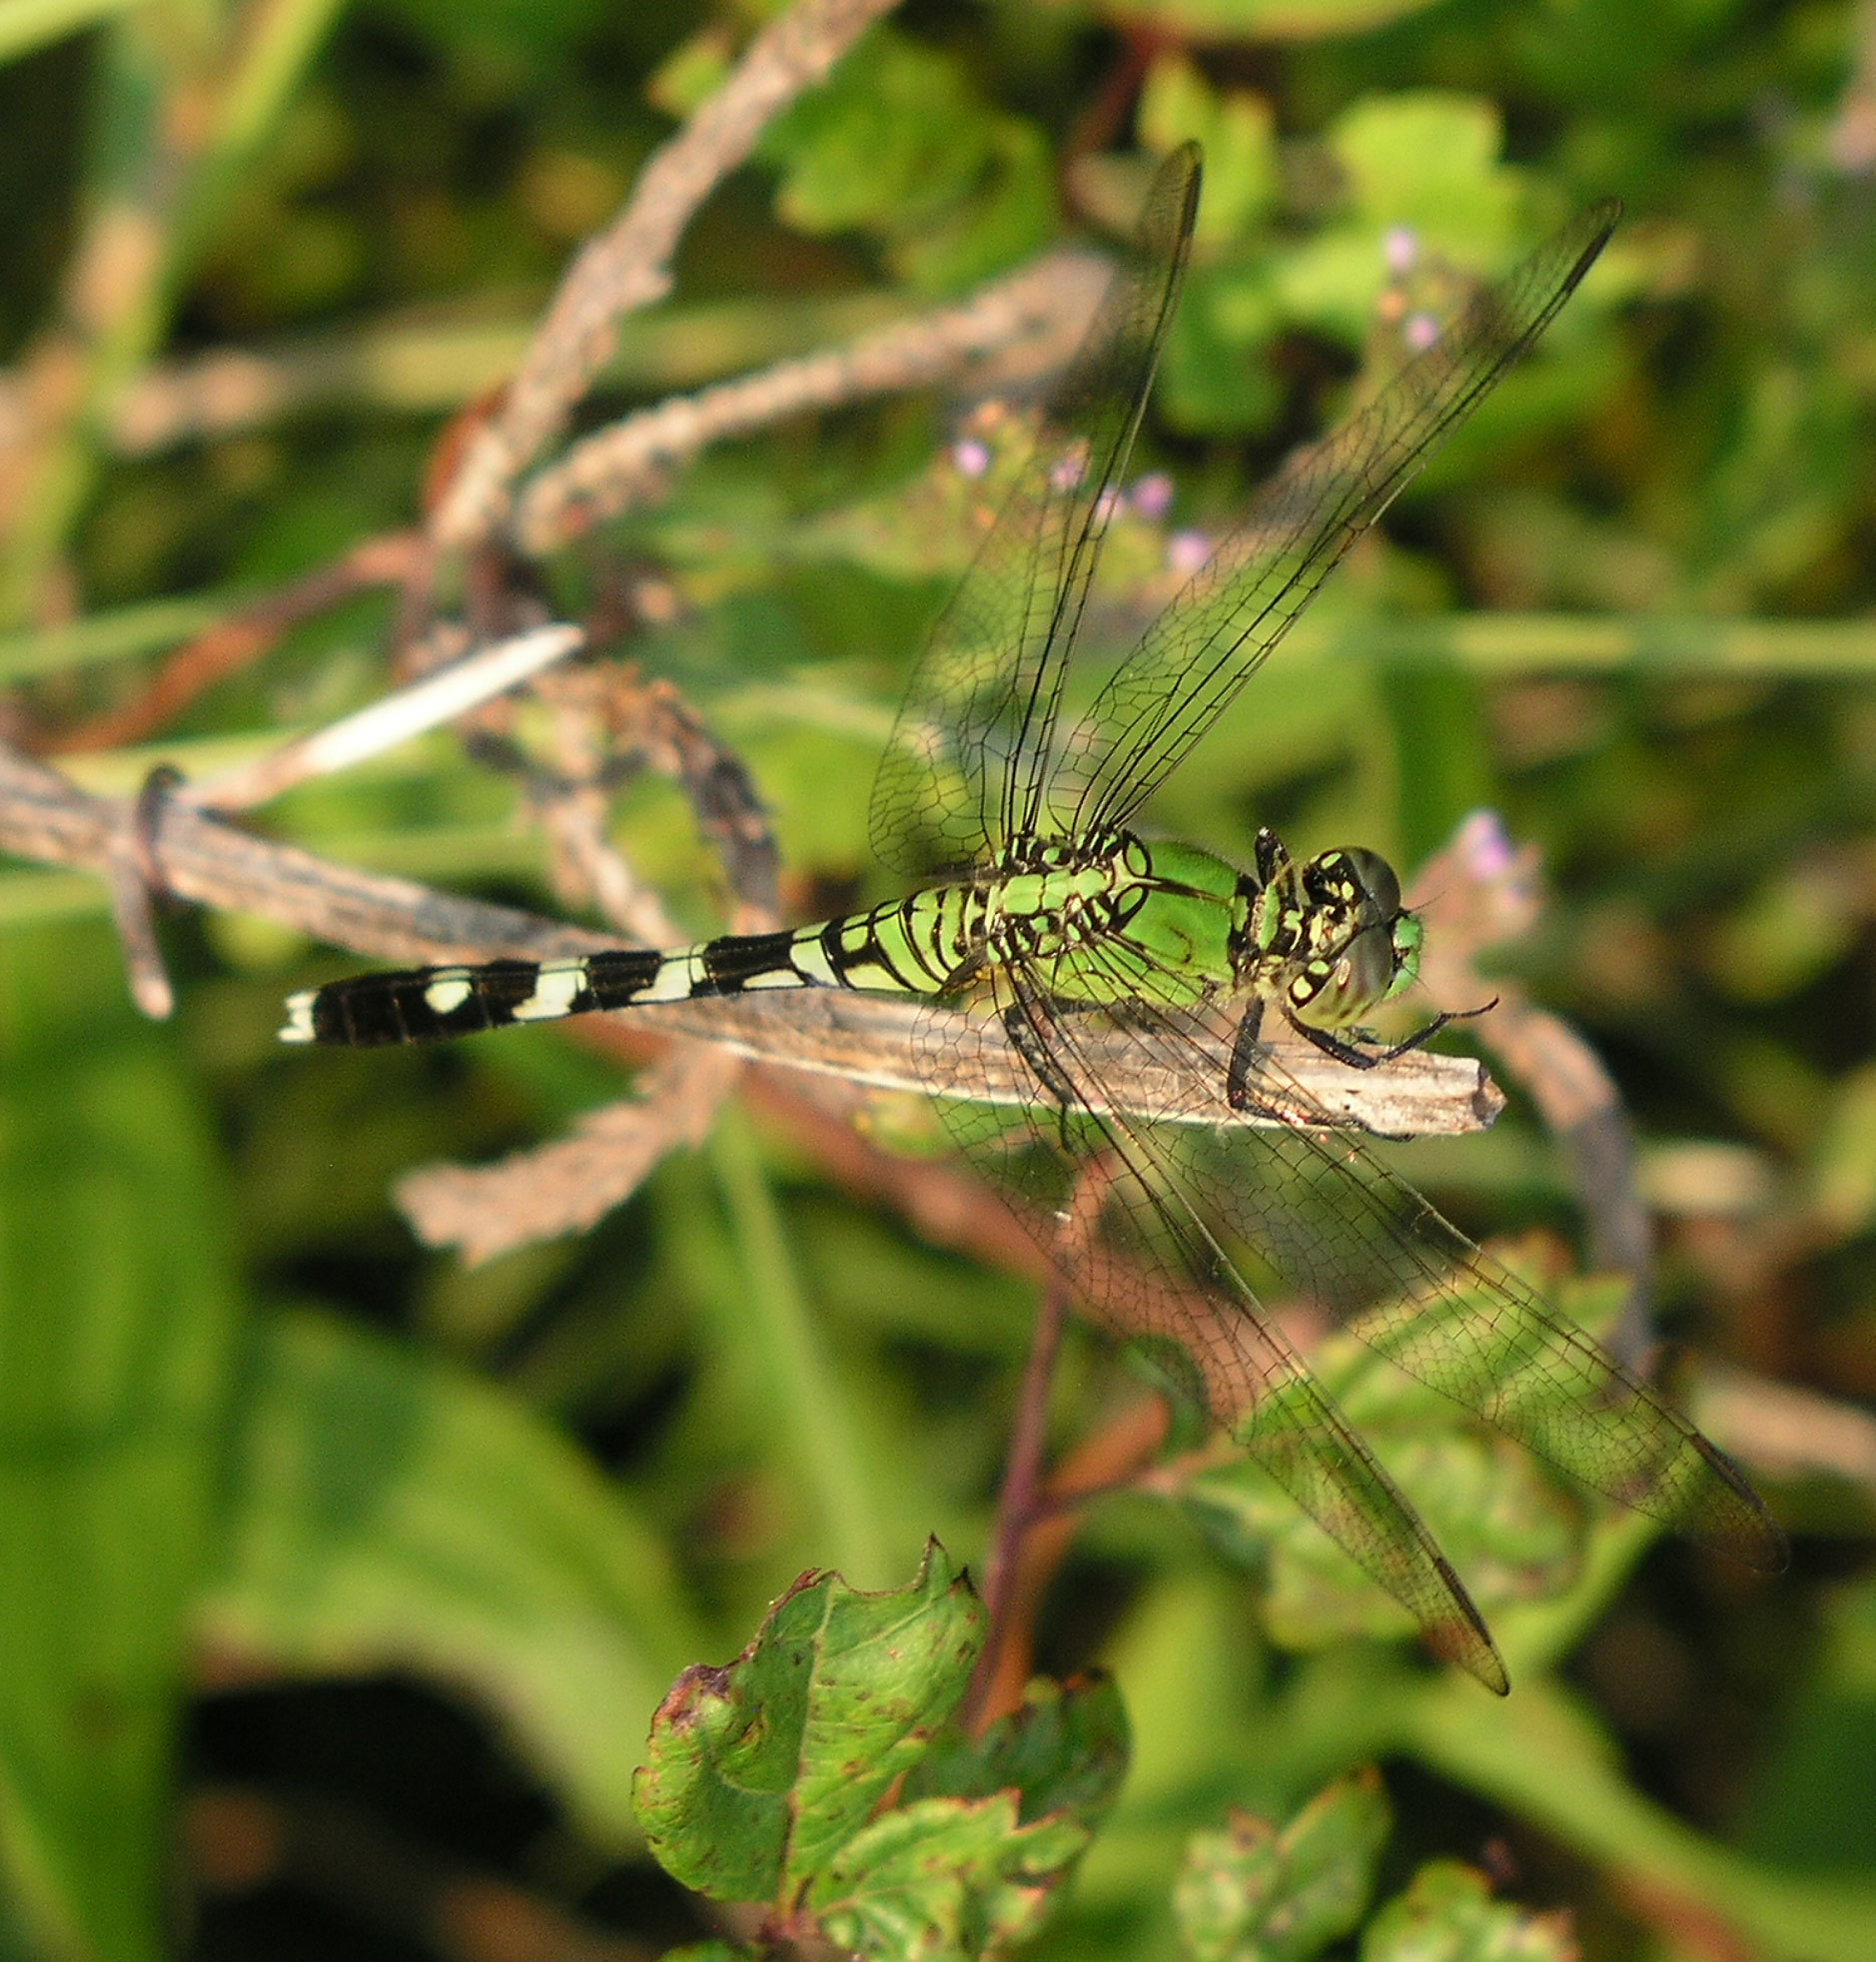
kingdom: Animalia
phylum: Arthropoda
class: Insecta
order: Odonata
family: Libellulidae
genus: Erythemis
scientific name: Erythemis simplicicollis
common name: Eastern pondhawk
